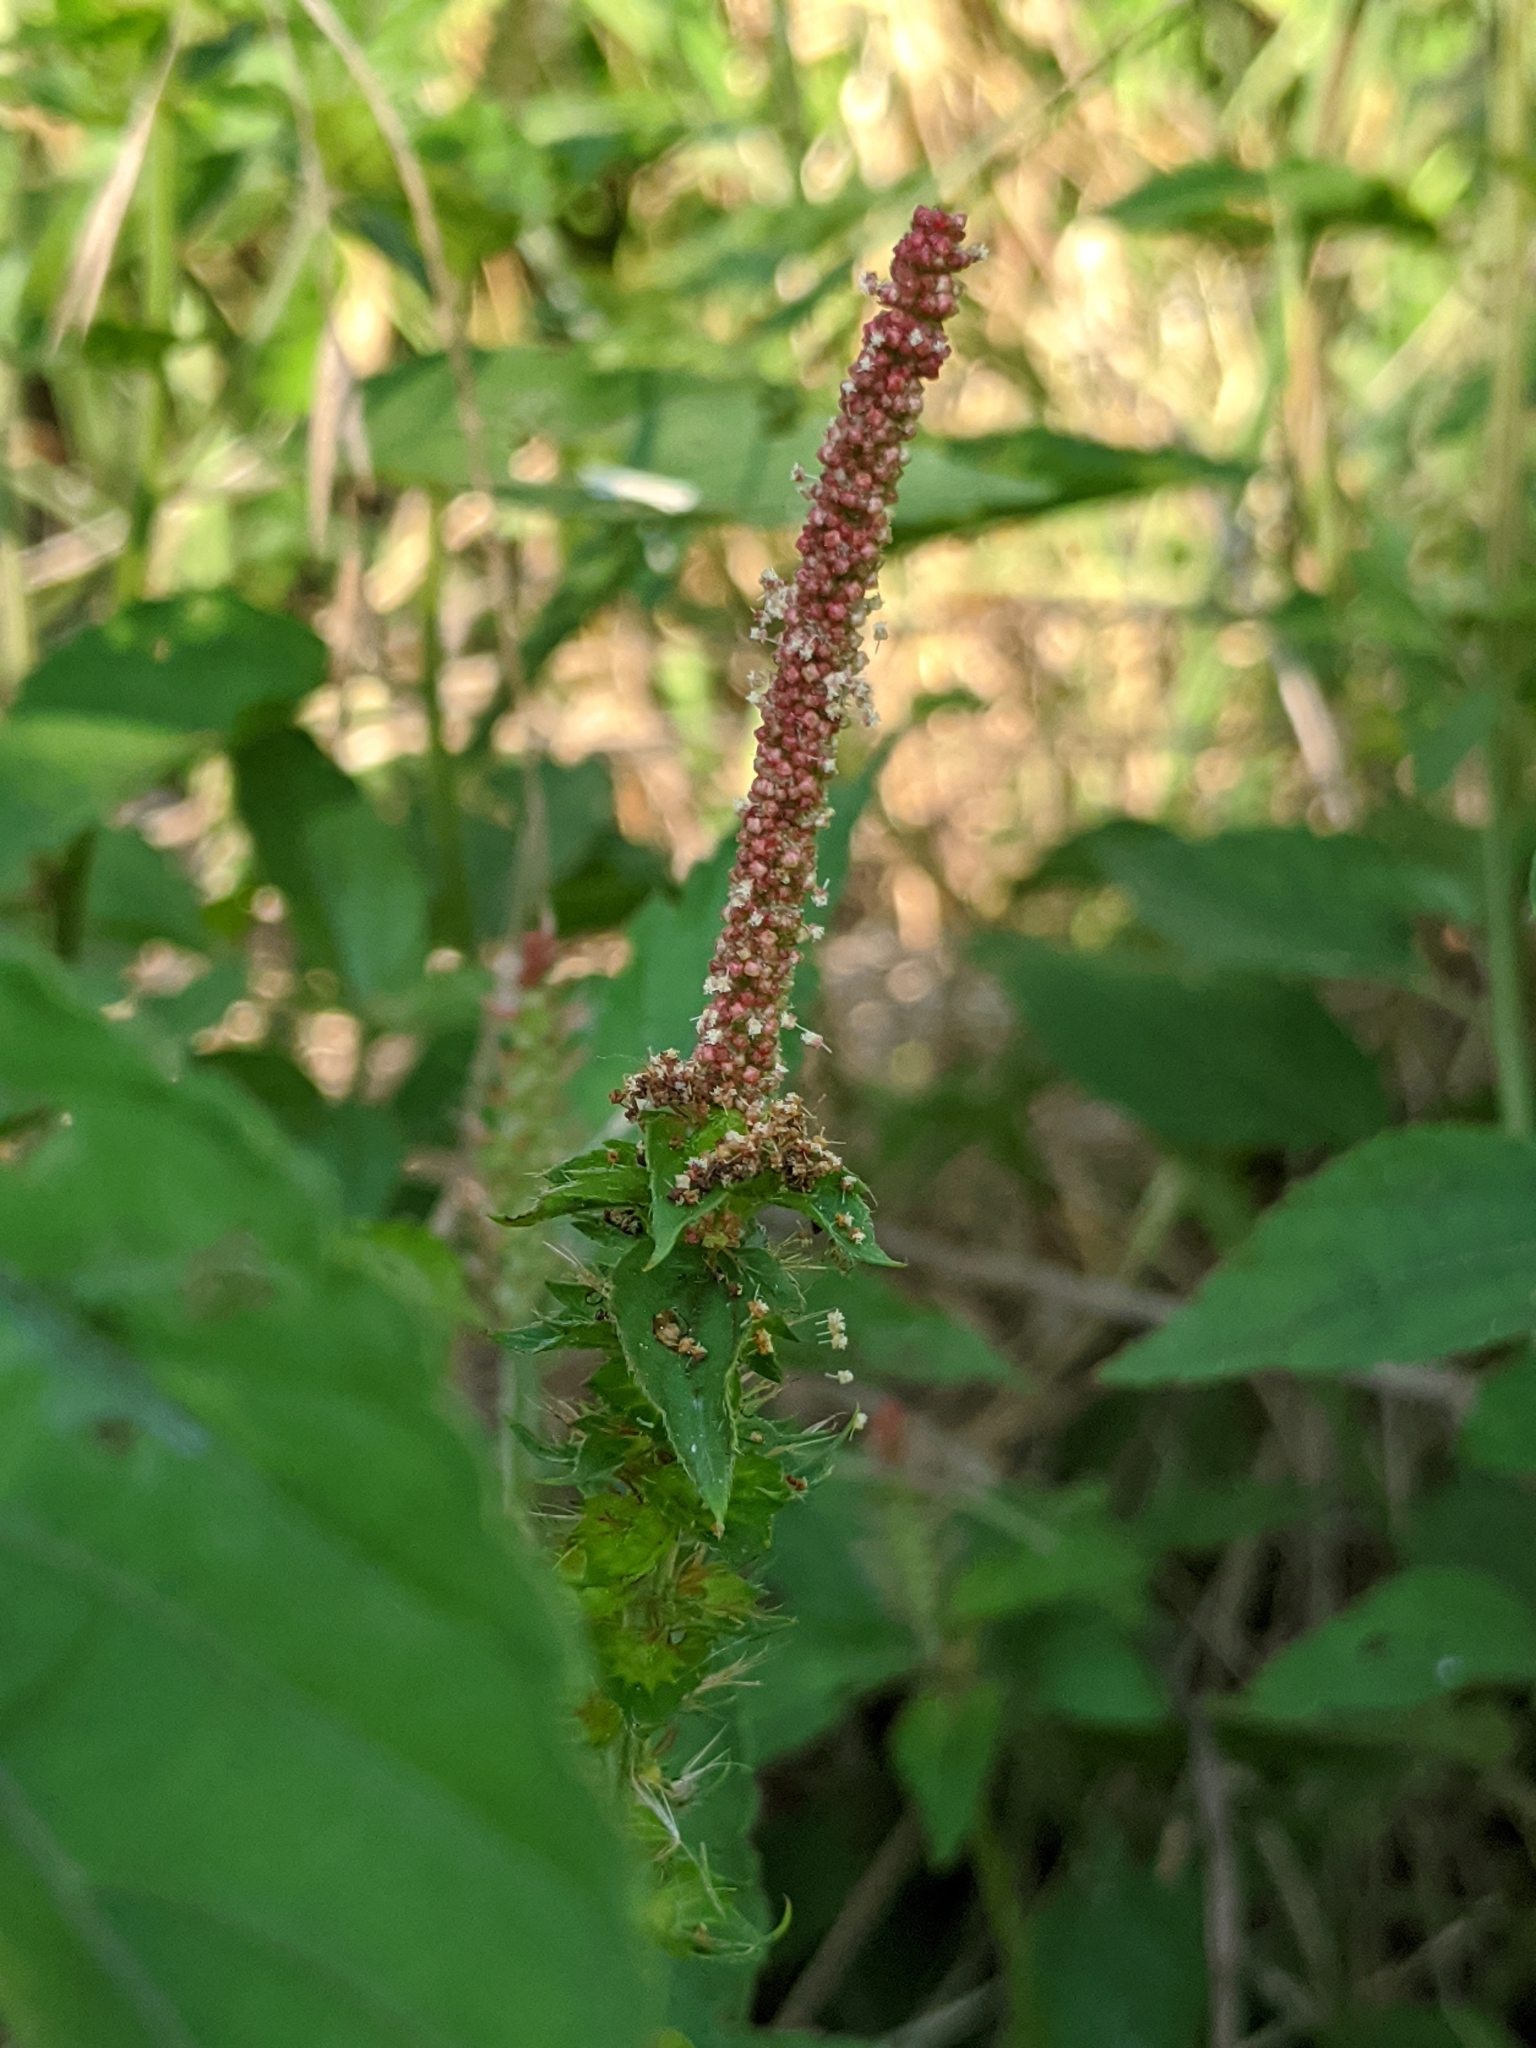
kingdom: Plantae
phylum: Tracheophyta
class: Magnoliopsida
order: Malpighiales
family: Euphorbiaceae
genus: Acalypha
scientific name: Acalypha phleoides
